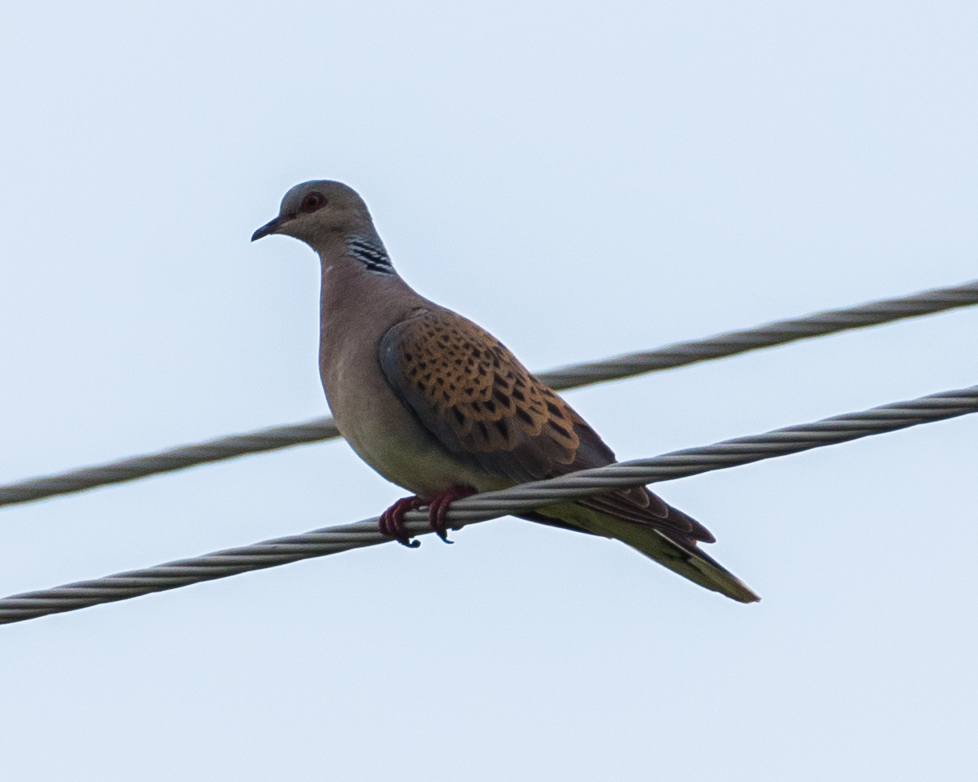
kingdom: Animalia
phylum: Chordata
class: Aves
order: Columbiformes
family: Columbidae
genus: Streptopelia
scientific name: Streptopelia turtur
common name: European turtle dove
